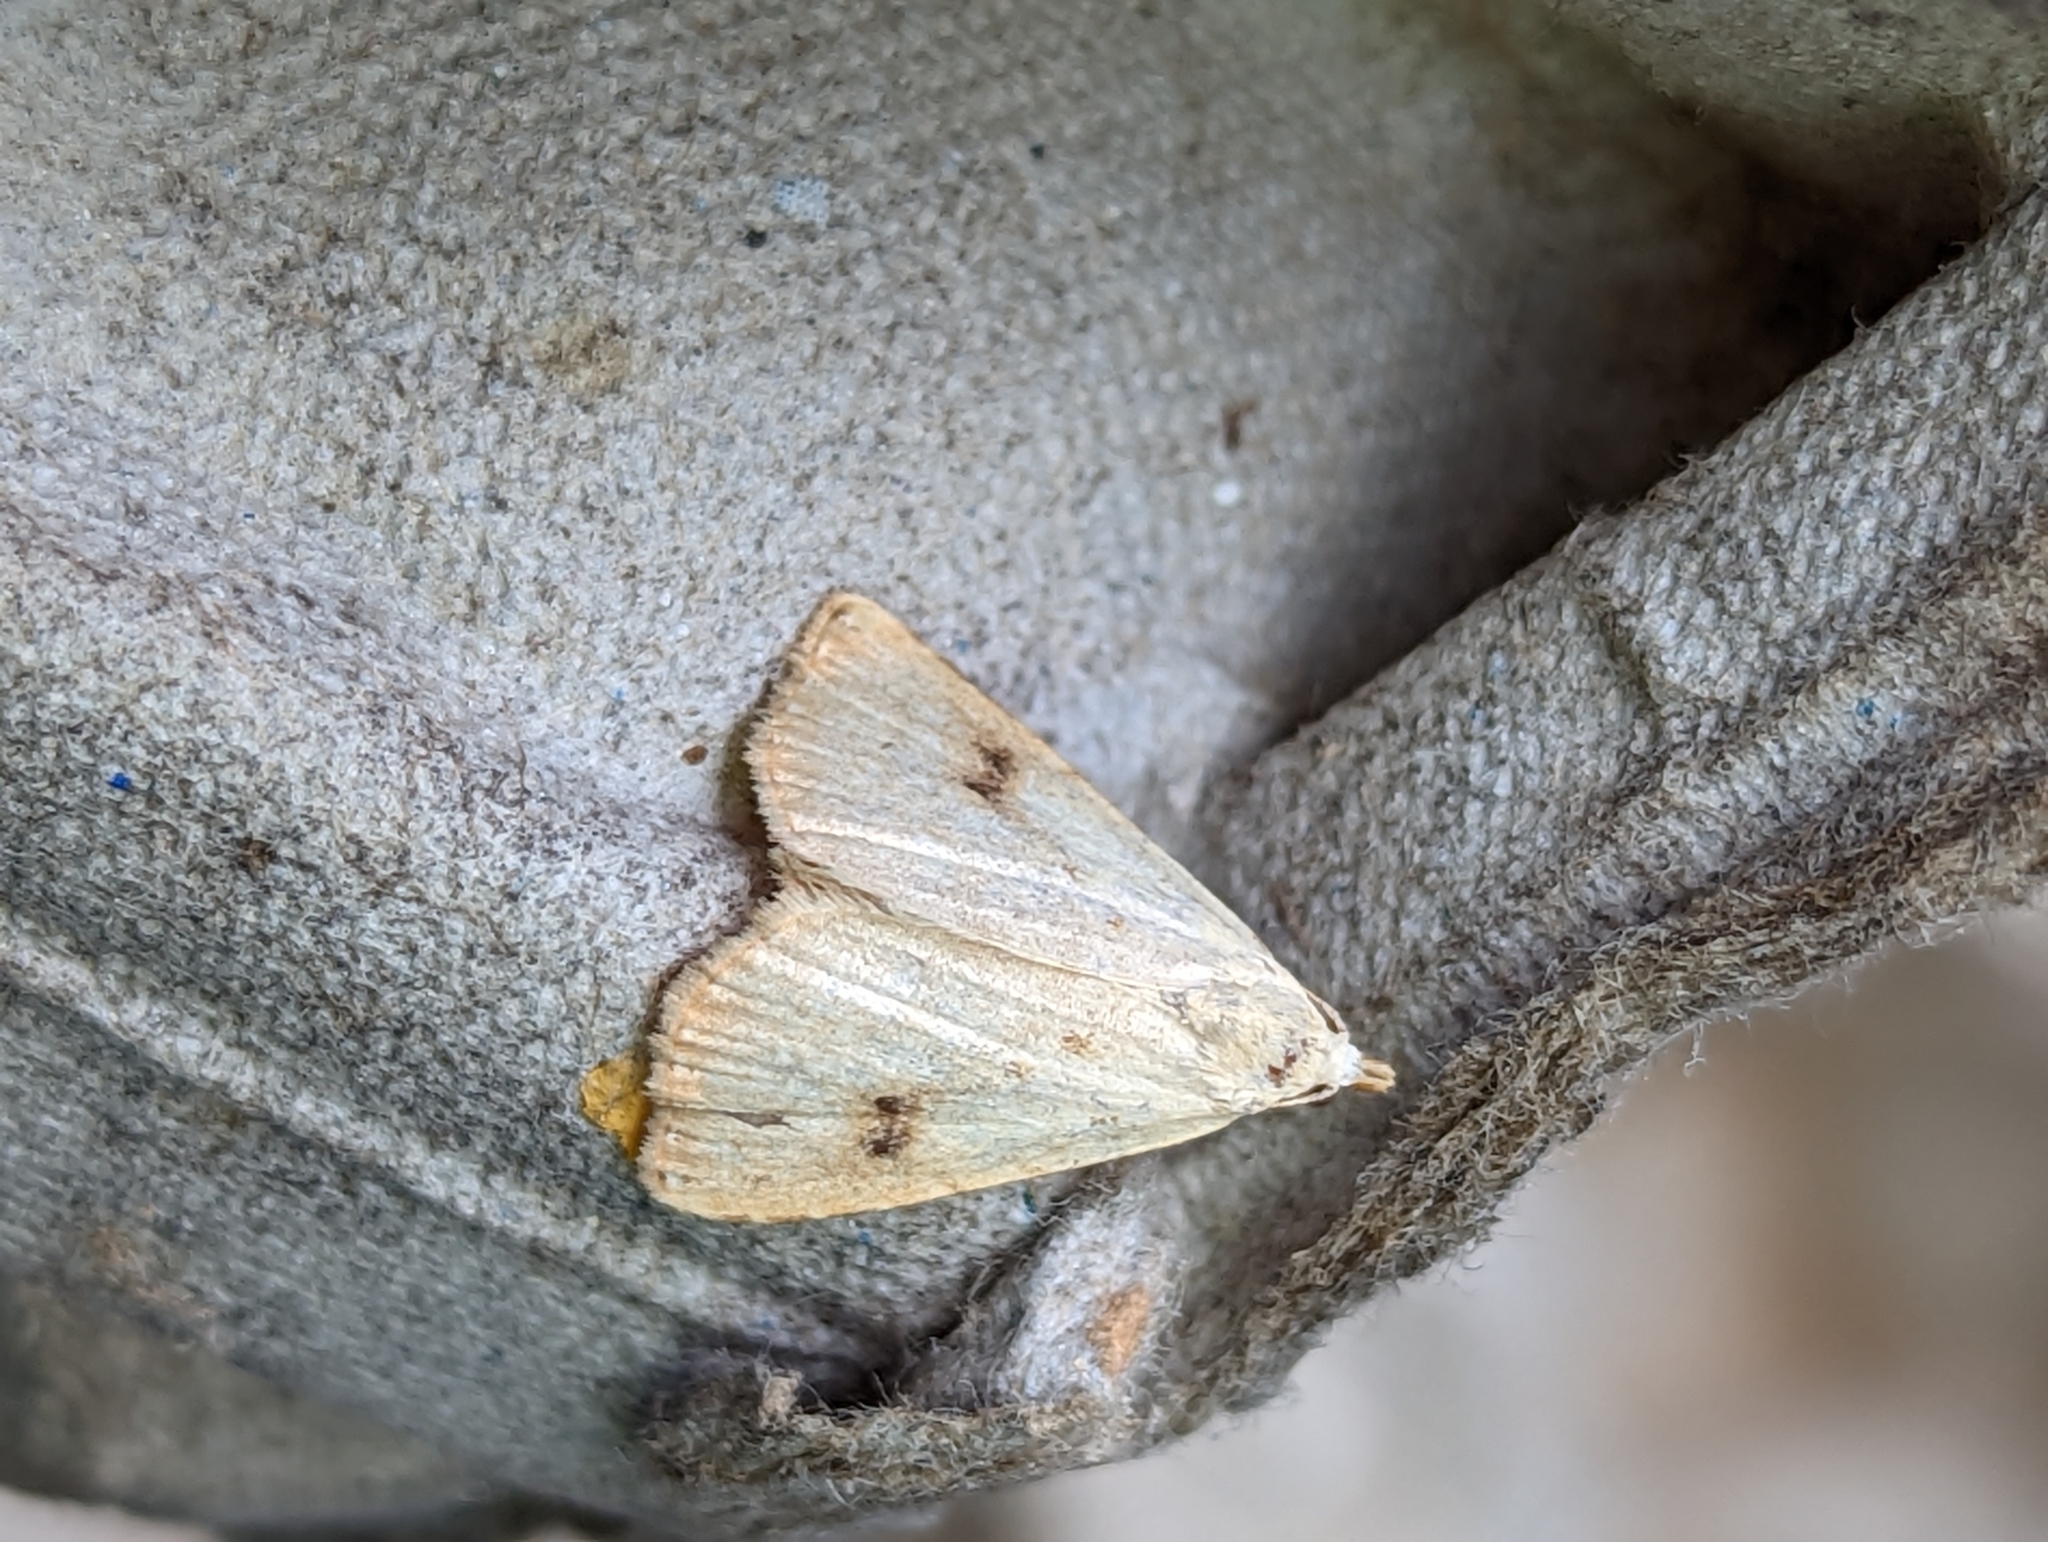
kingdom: Animalia
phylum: Arthropoda
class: Insecta
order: Lepidoptera
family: Erebidae
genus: Rivula
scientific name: Rivula sericealis
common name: Straw dot
